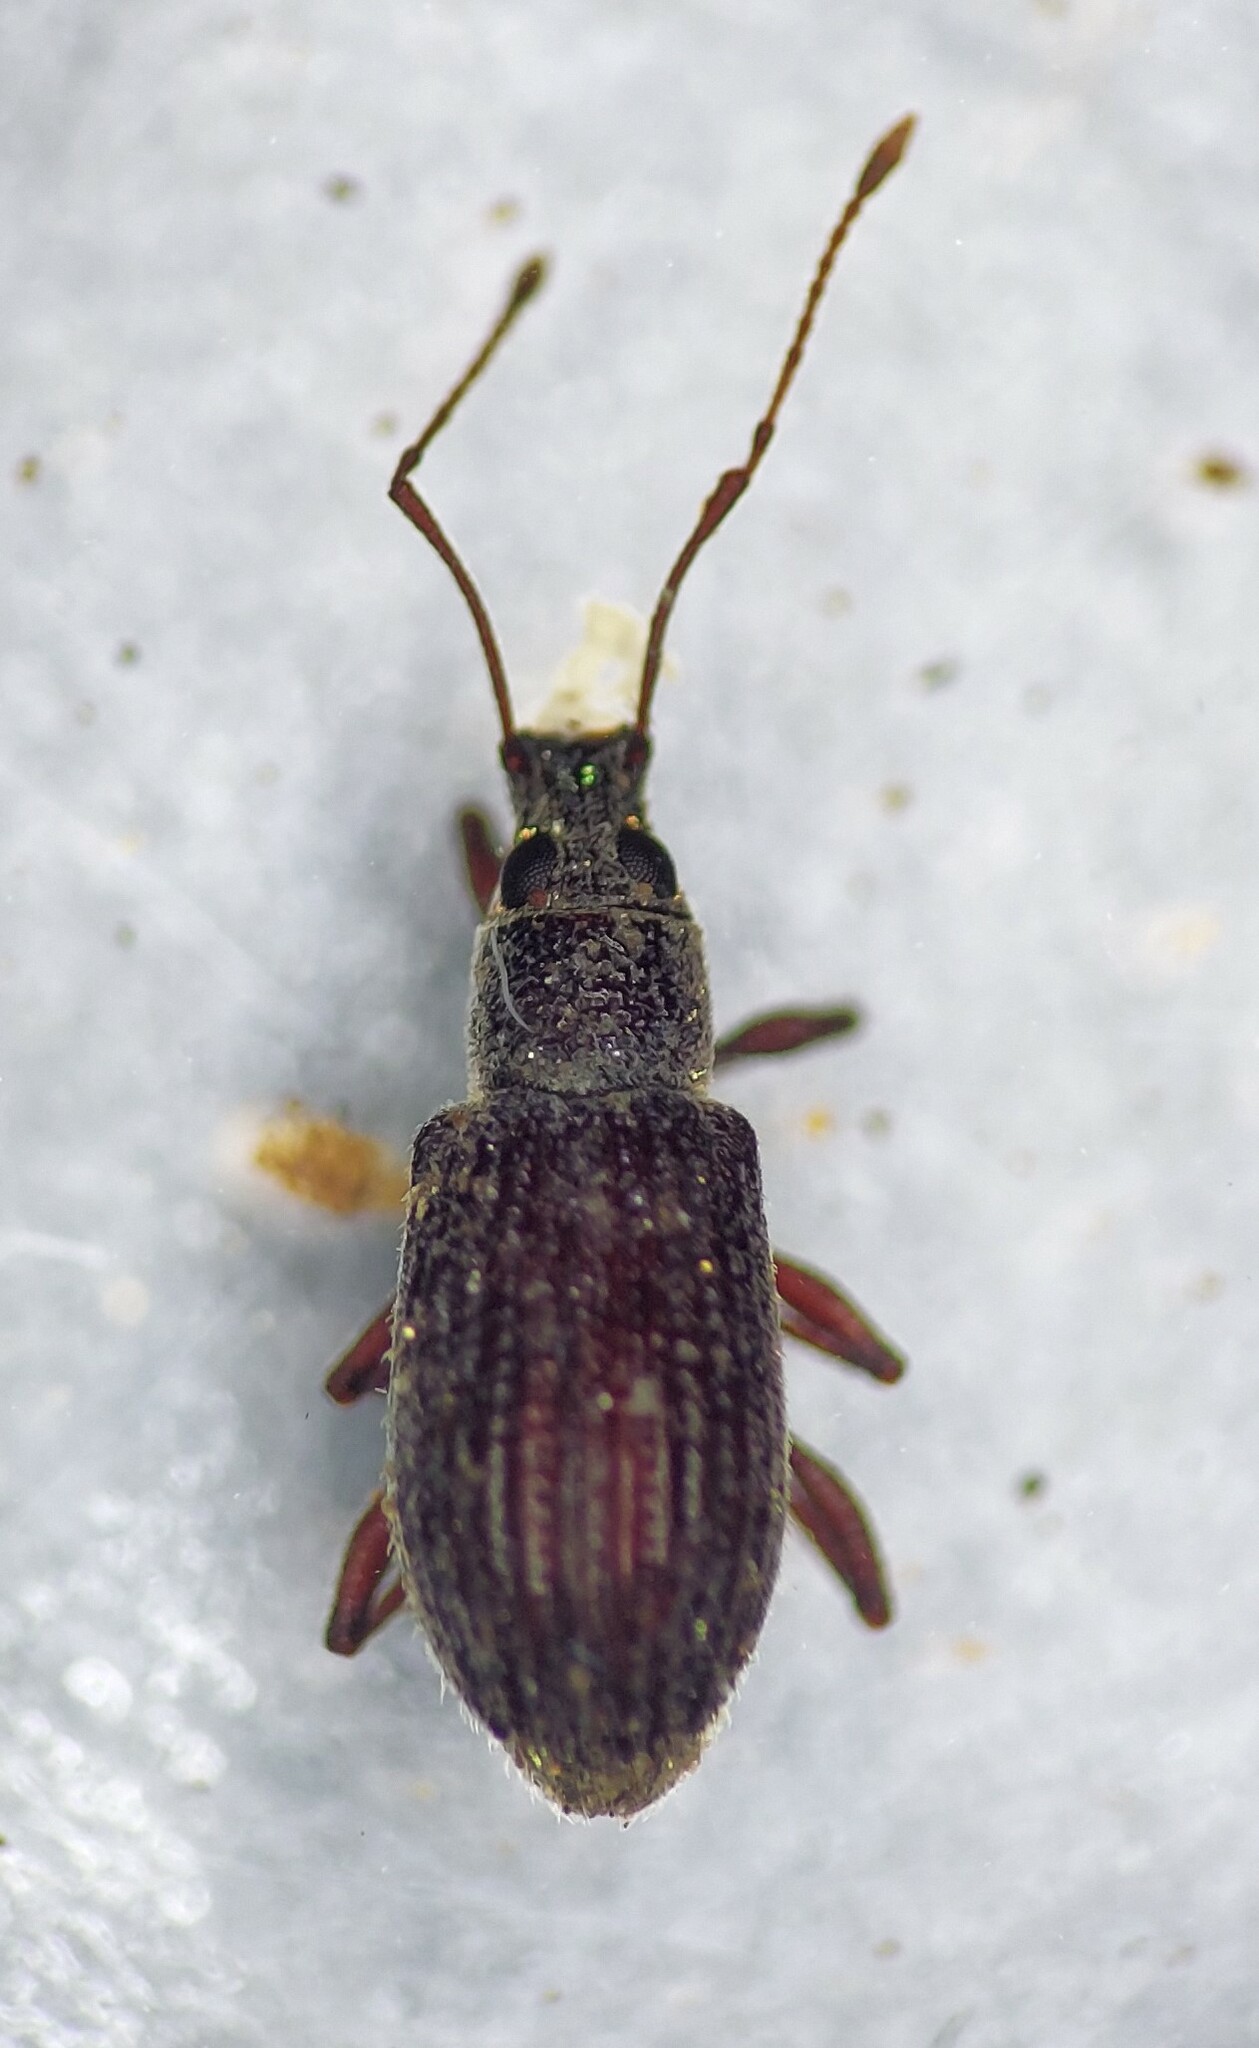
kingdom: Animalia
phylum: Arthropoda
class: Insecta
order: Coleoptera
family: Curculionidae
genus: Cyrtepistomus
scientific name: Cyrtepistomus castaneus
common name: Weevil
